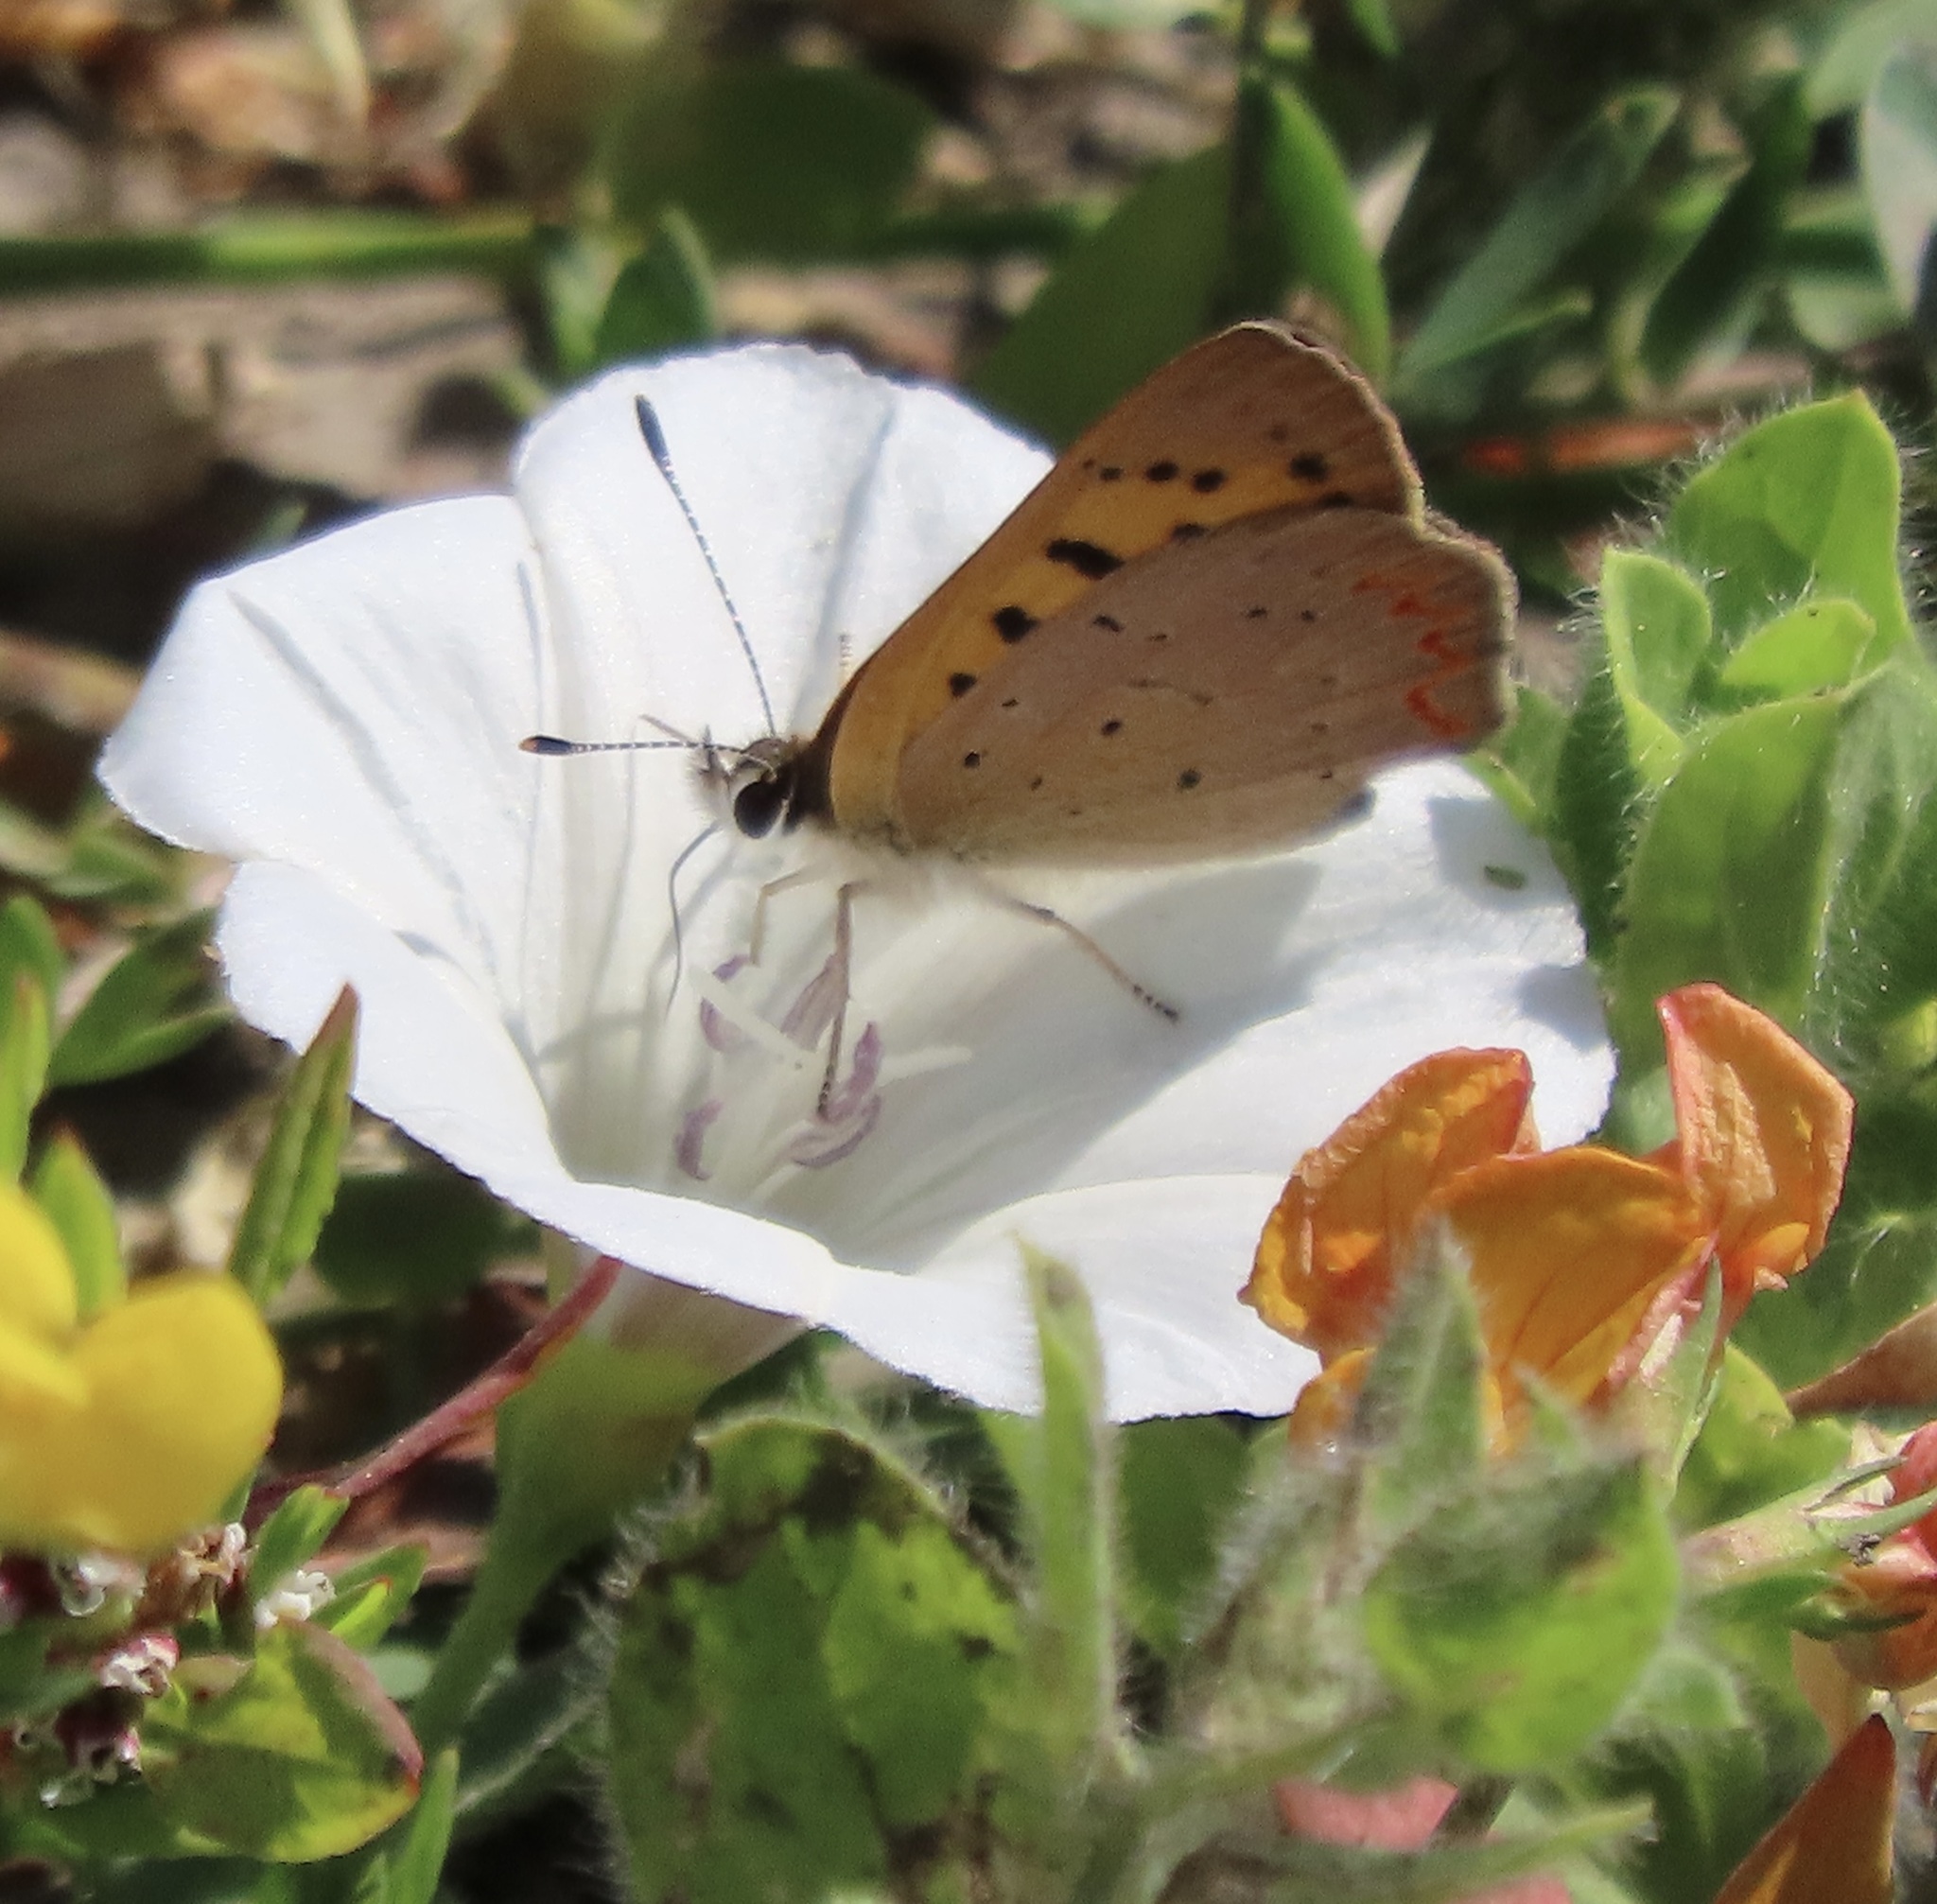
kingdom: Animalia
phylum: Arthropoda
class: Insecta
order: Lepidoptera
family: Lycaenidae
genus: Tharsalea
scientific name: Tharsalea helloides
